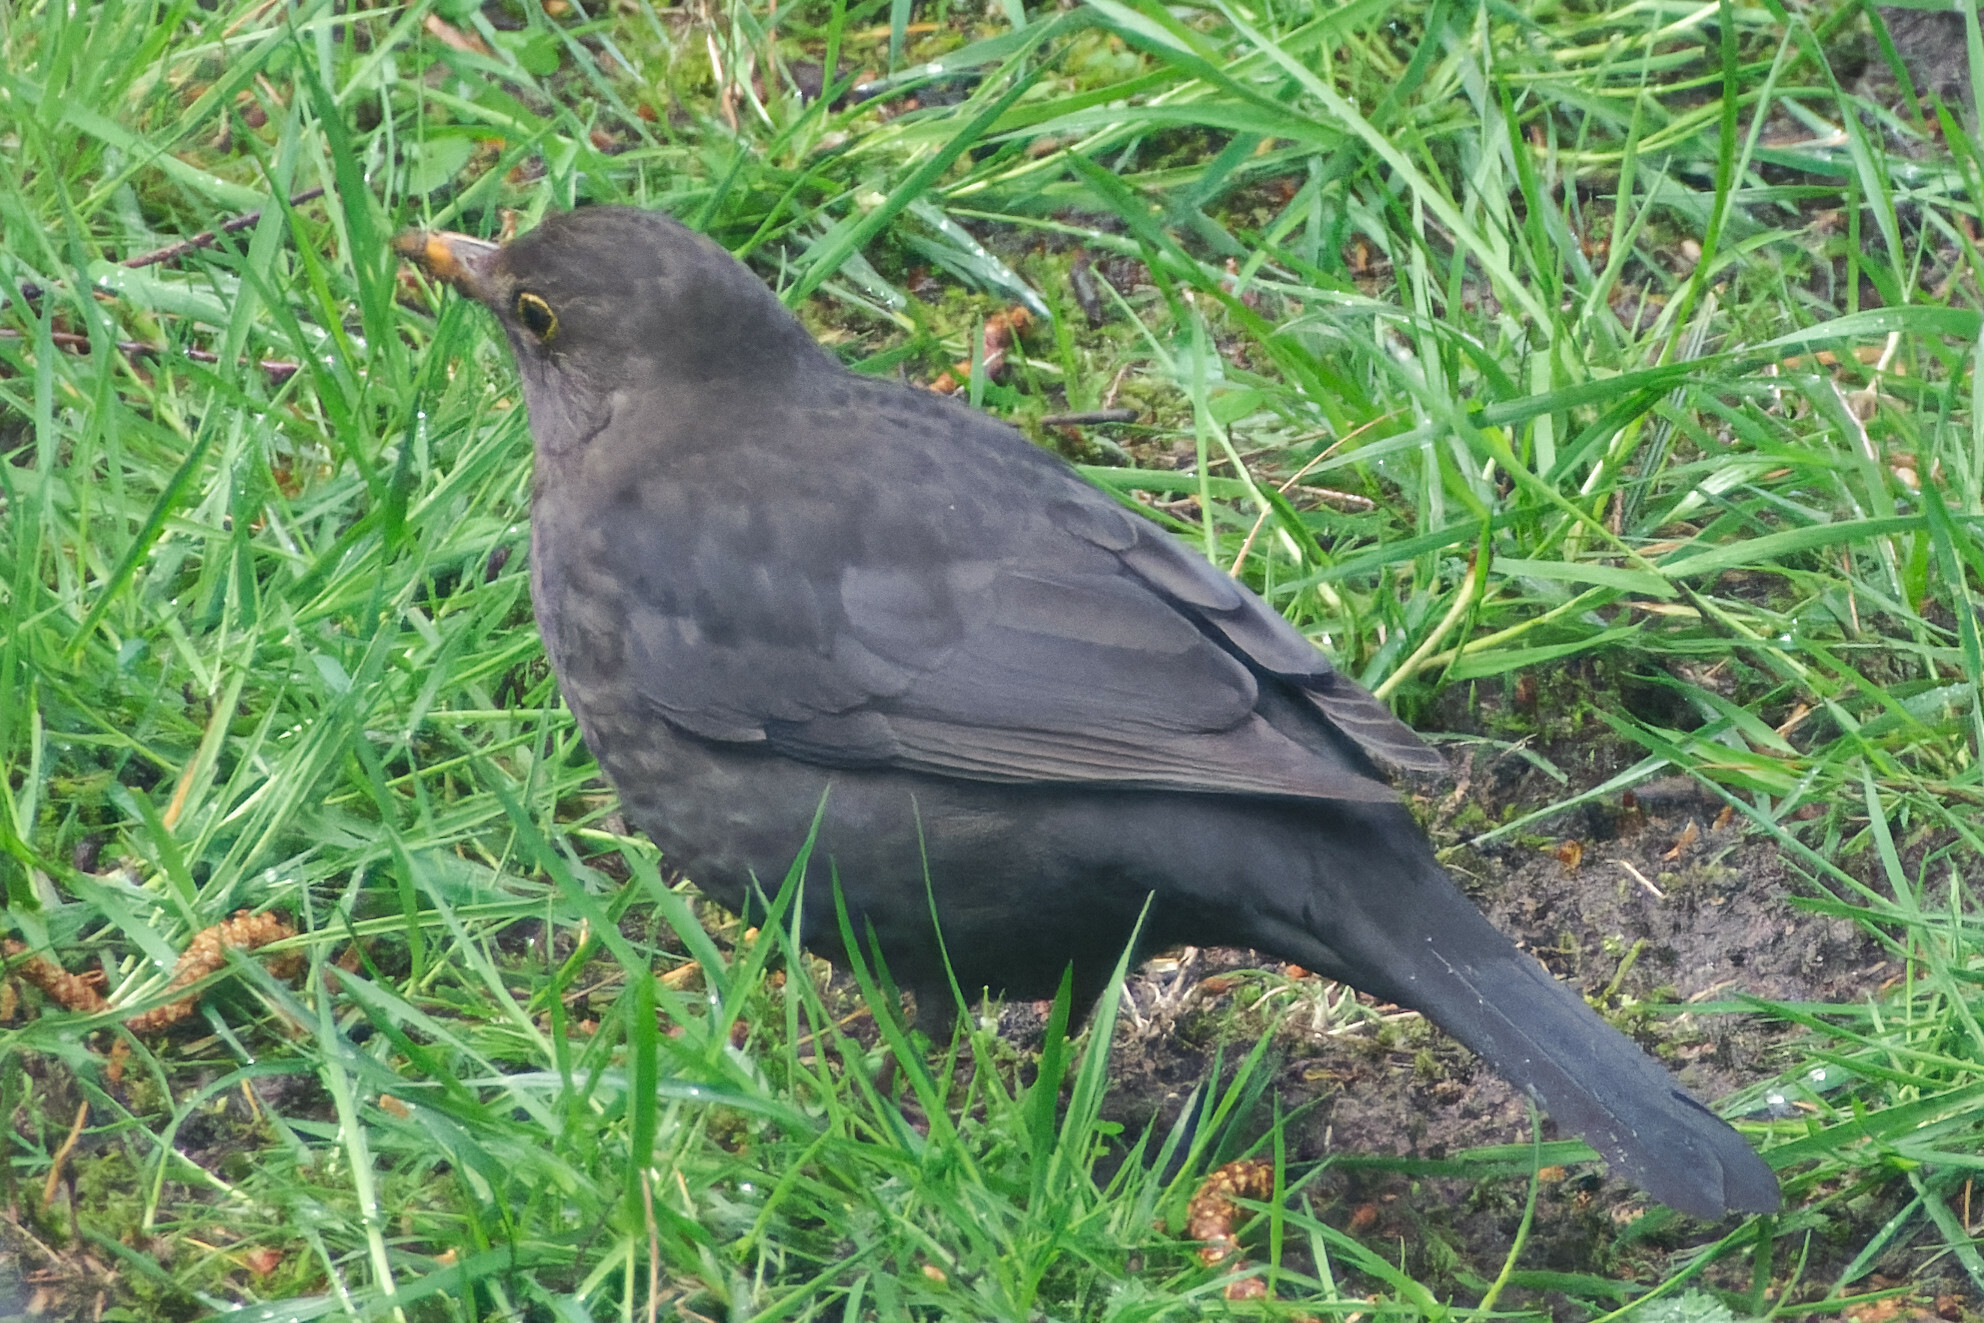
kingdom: Animalia
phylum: Chordata
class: Aves
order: Passeriformes
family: Turdidae
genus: Turdus
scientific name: Turdus merula
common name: Common blackbird
